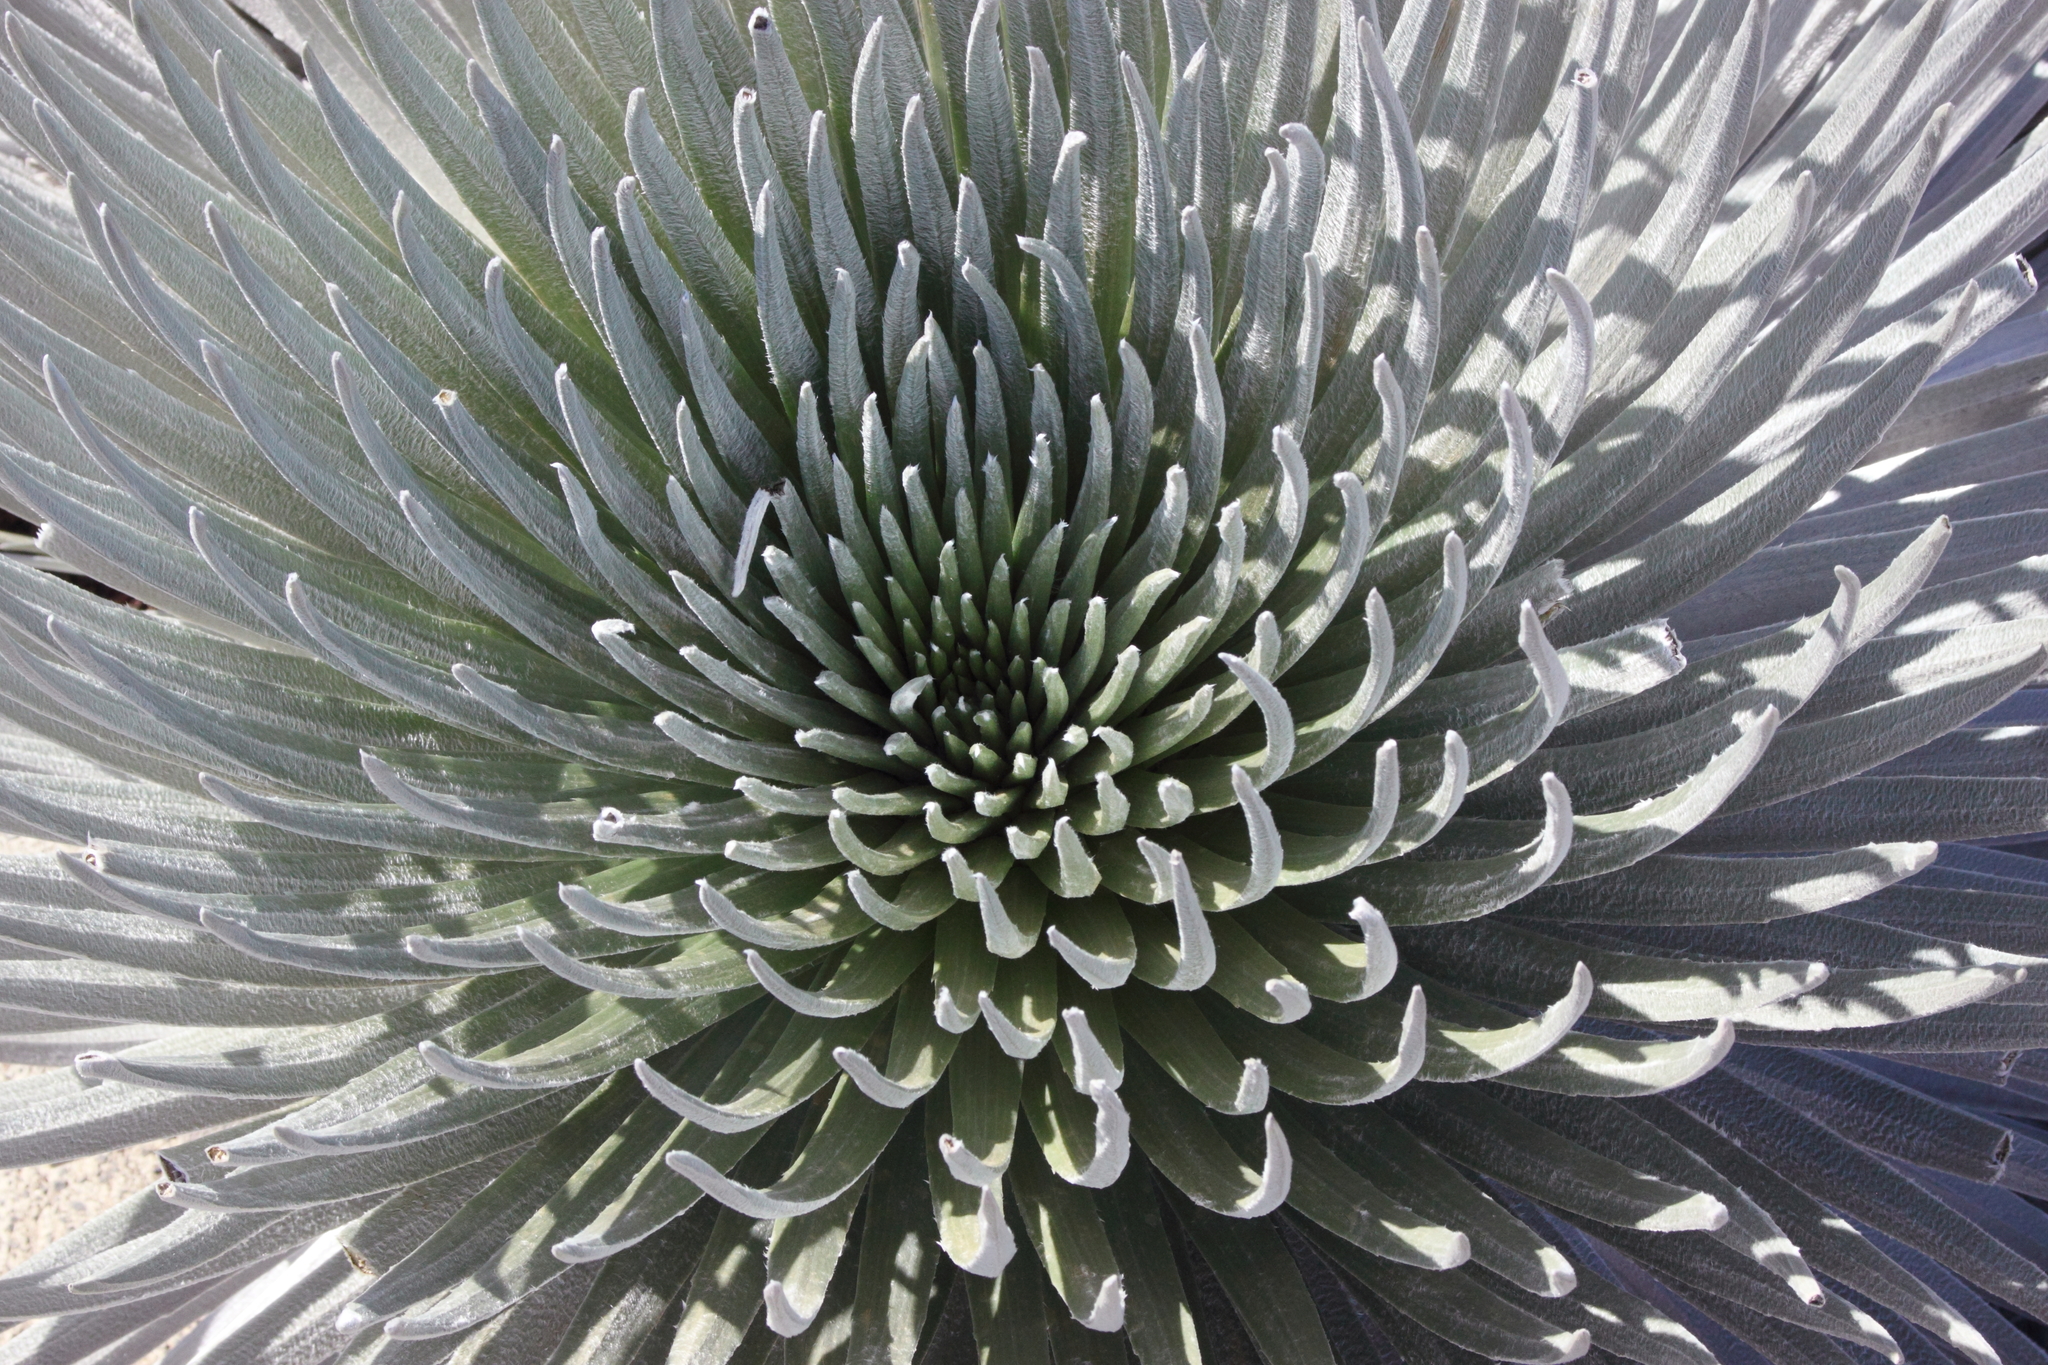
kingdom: Plantae
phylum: Tracheophyta
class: Magnoliopsida
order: Asterales
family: Asteraceae
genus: Argyroxiphium
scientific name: Argyroxiphium sandwicense
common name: Silversword
